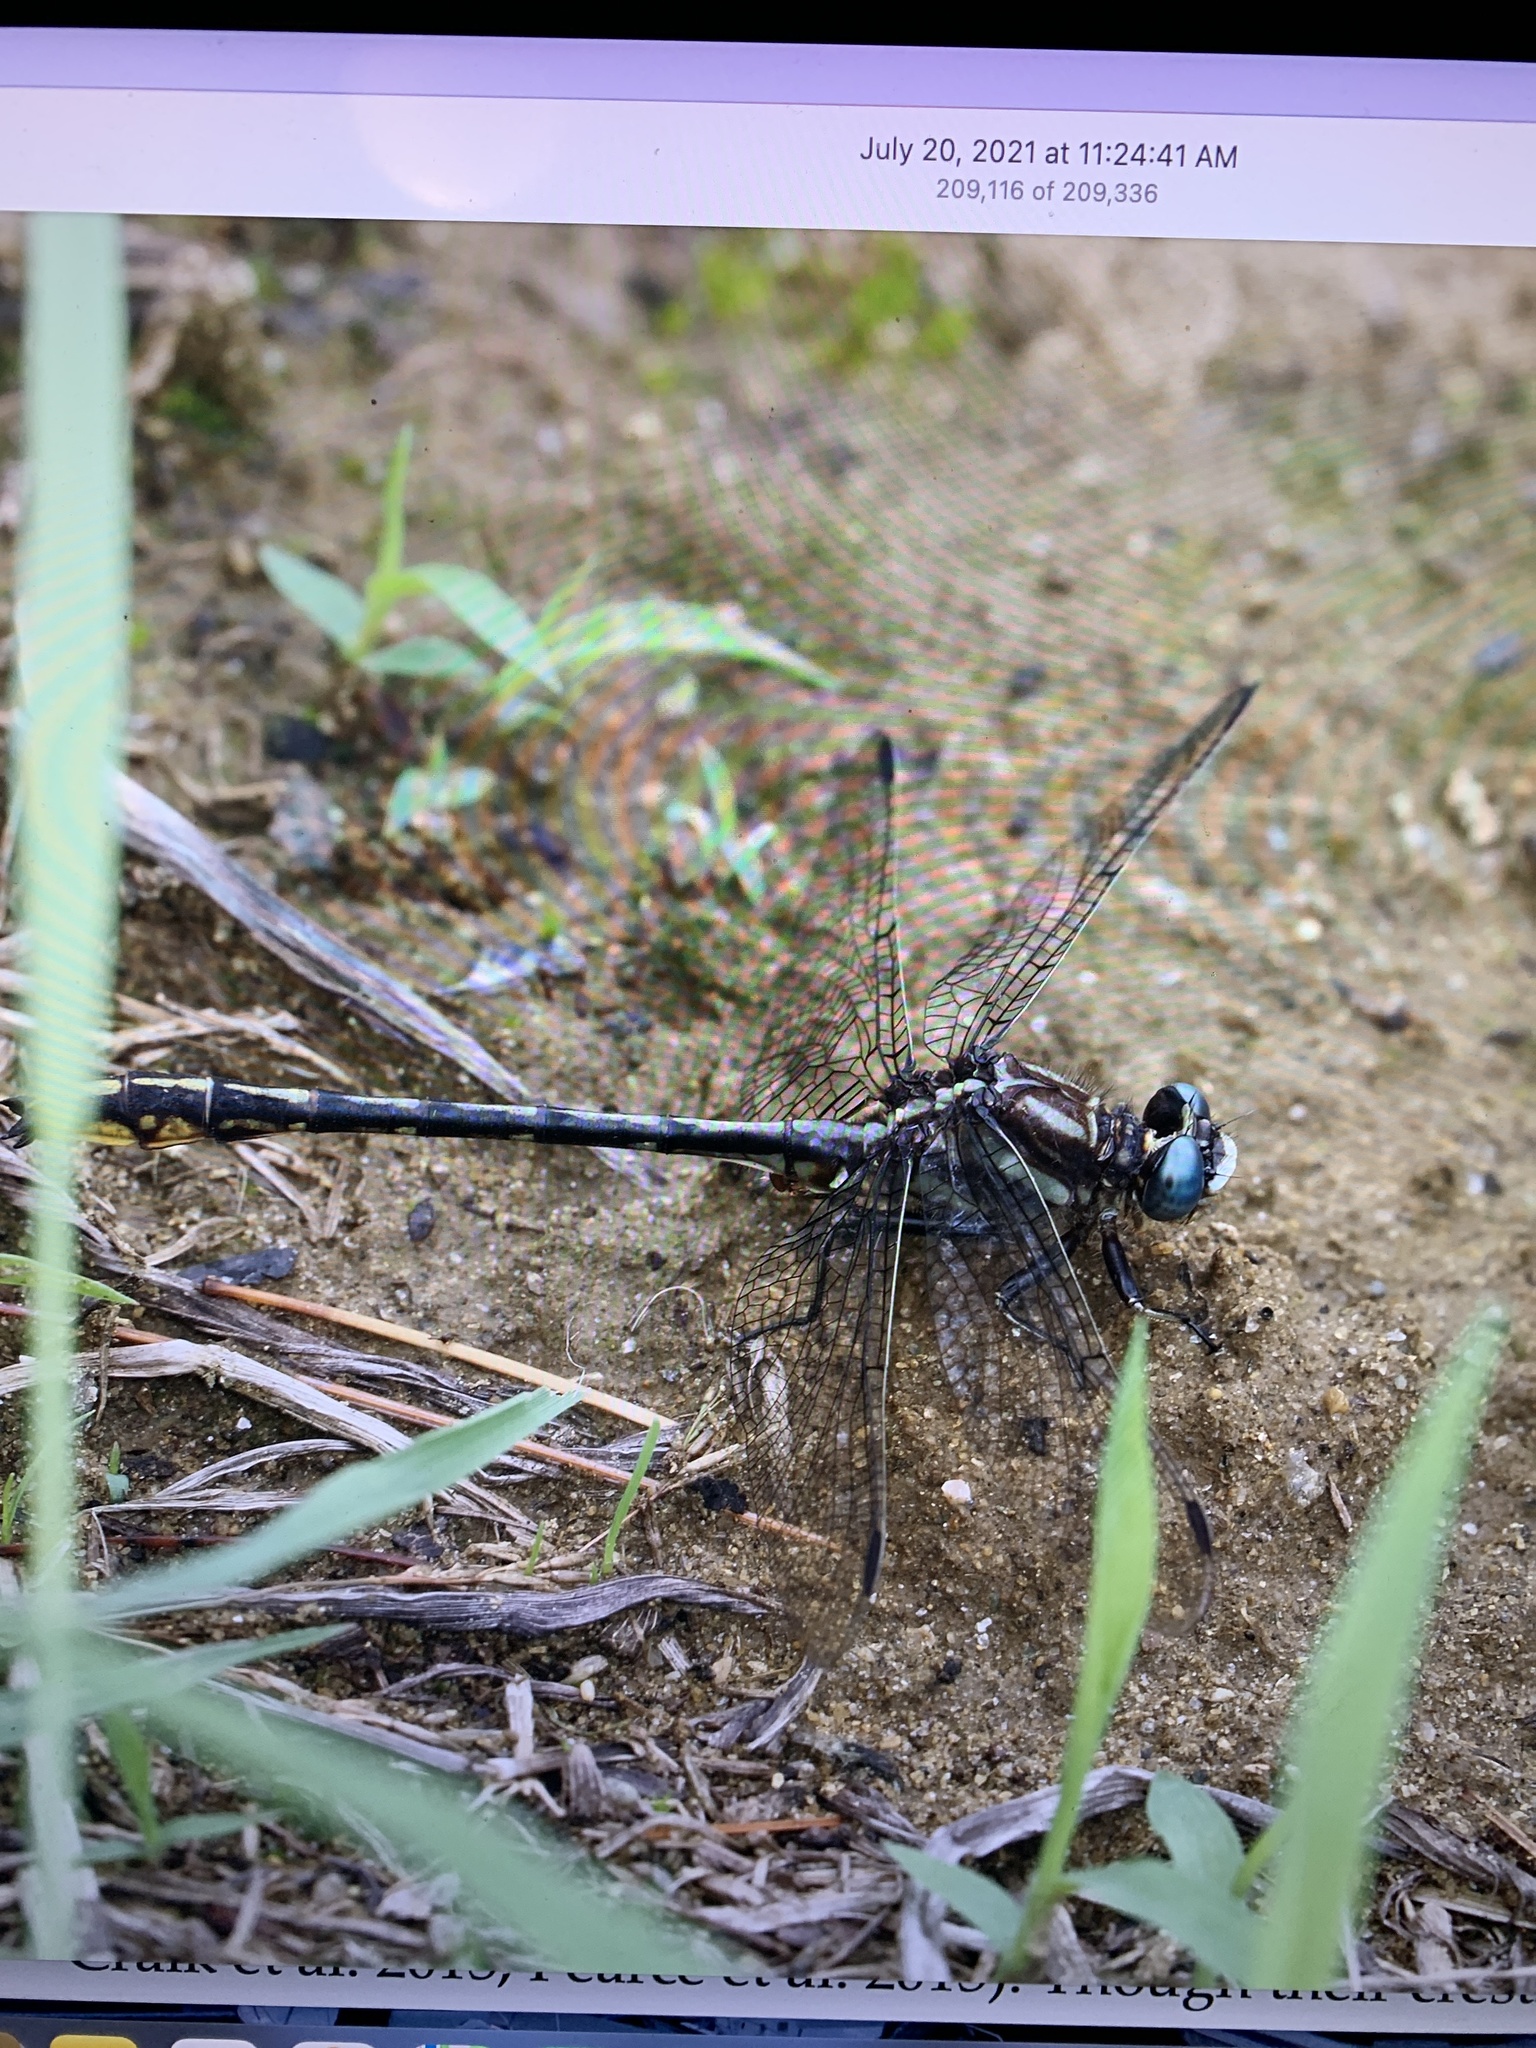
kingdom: Animalia
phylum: Arthropoda
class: Insecta
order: Odonata
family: Gomphidae
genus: Phanogomphus
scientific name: Phanogomphus exilis
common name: Lancet clubtail
